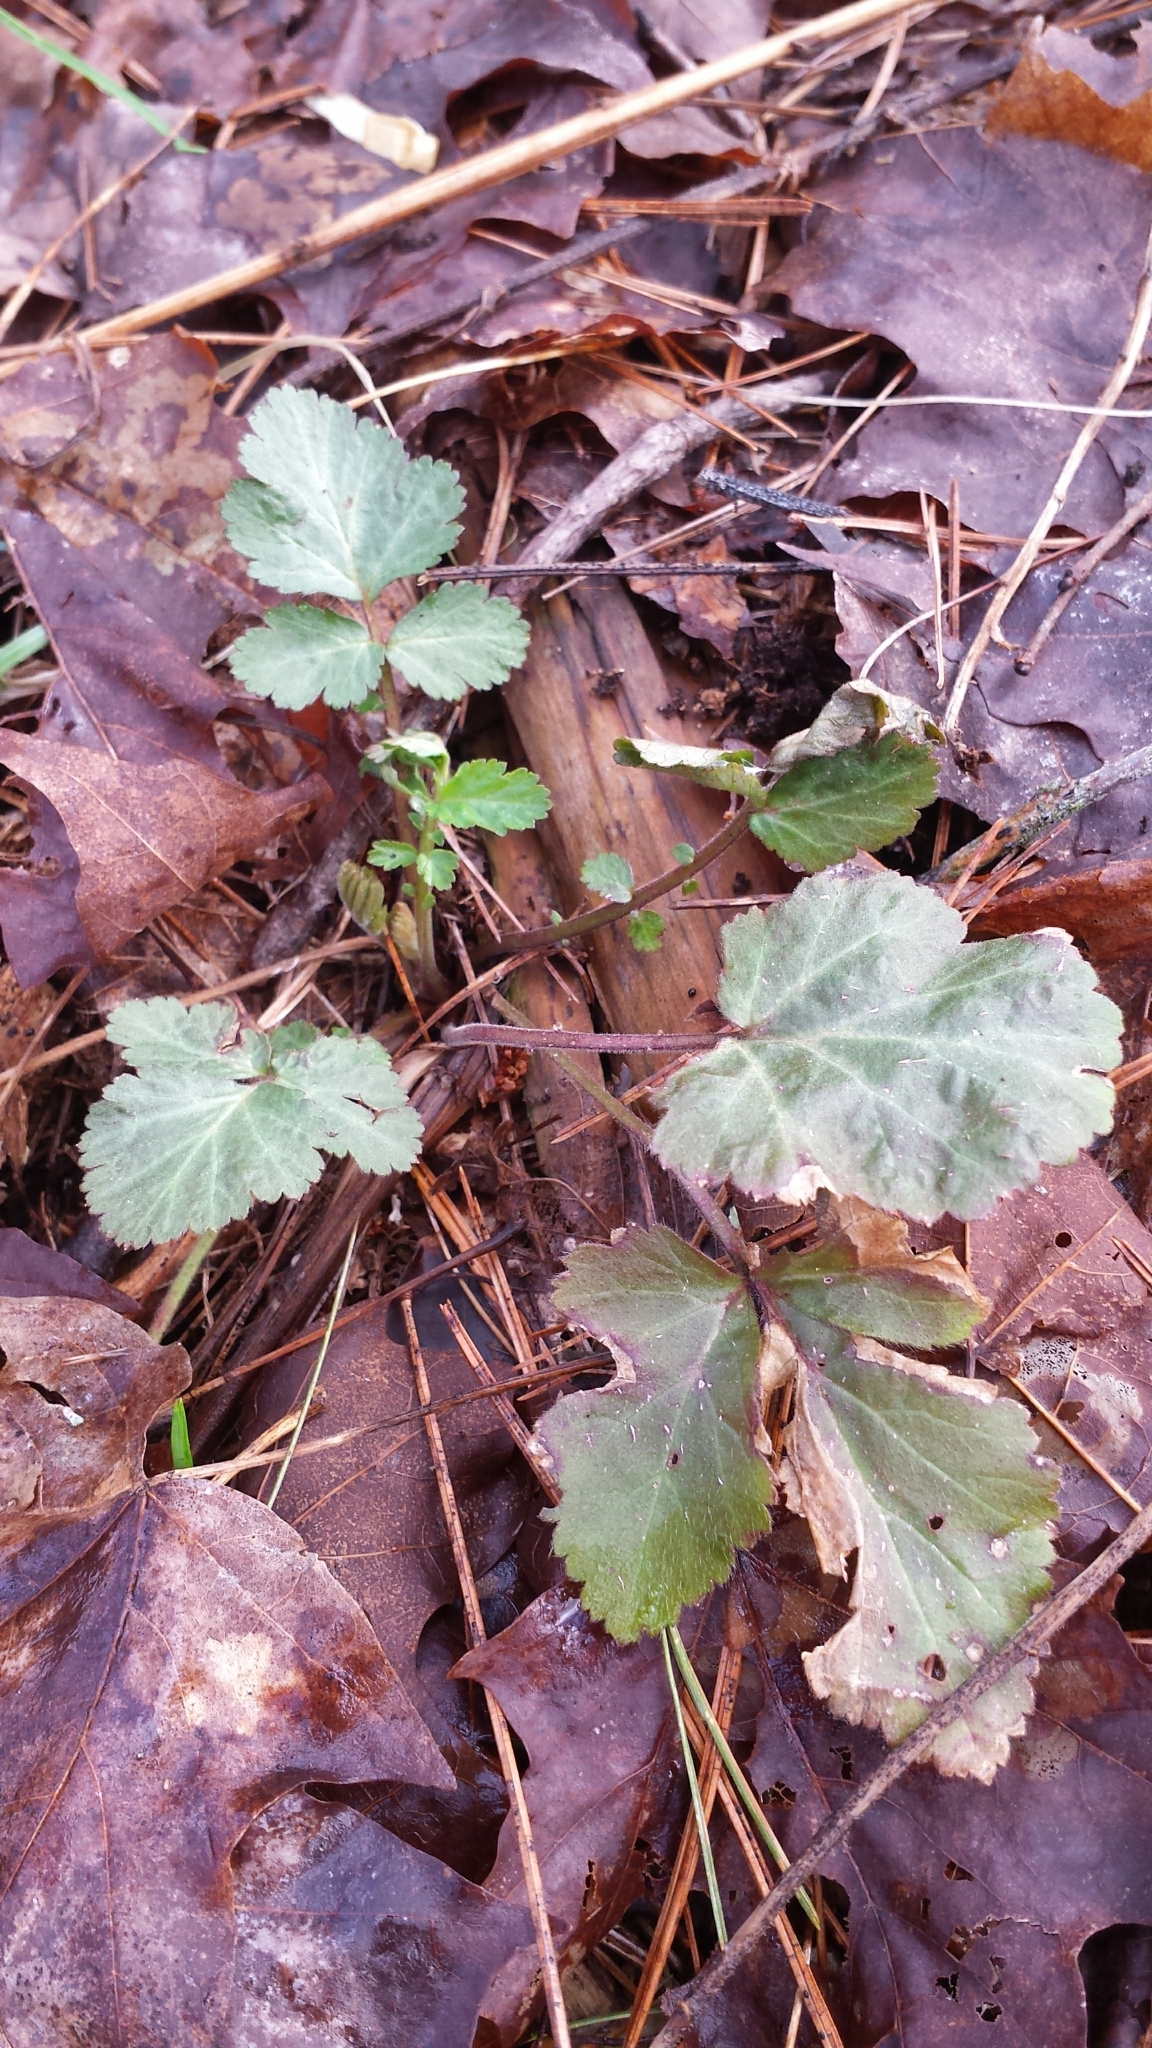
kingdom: Plantae
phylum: Tracheophyta
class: Magnoliopsida
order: Rosales
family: Rosaceae
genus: Geum
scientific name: Geum canadense
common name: White avens
